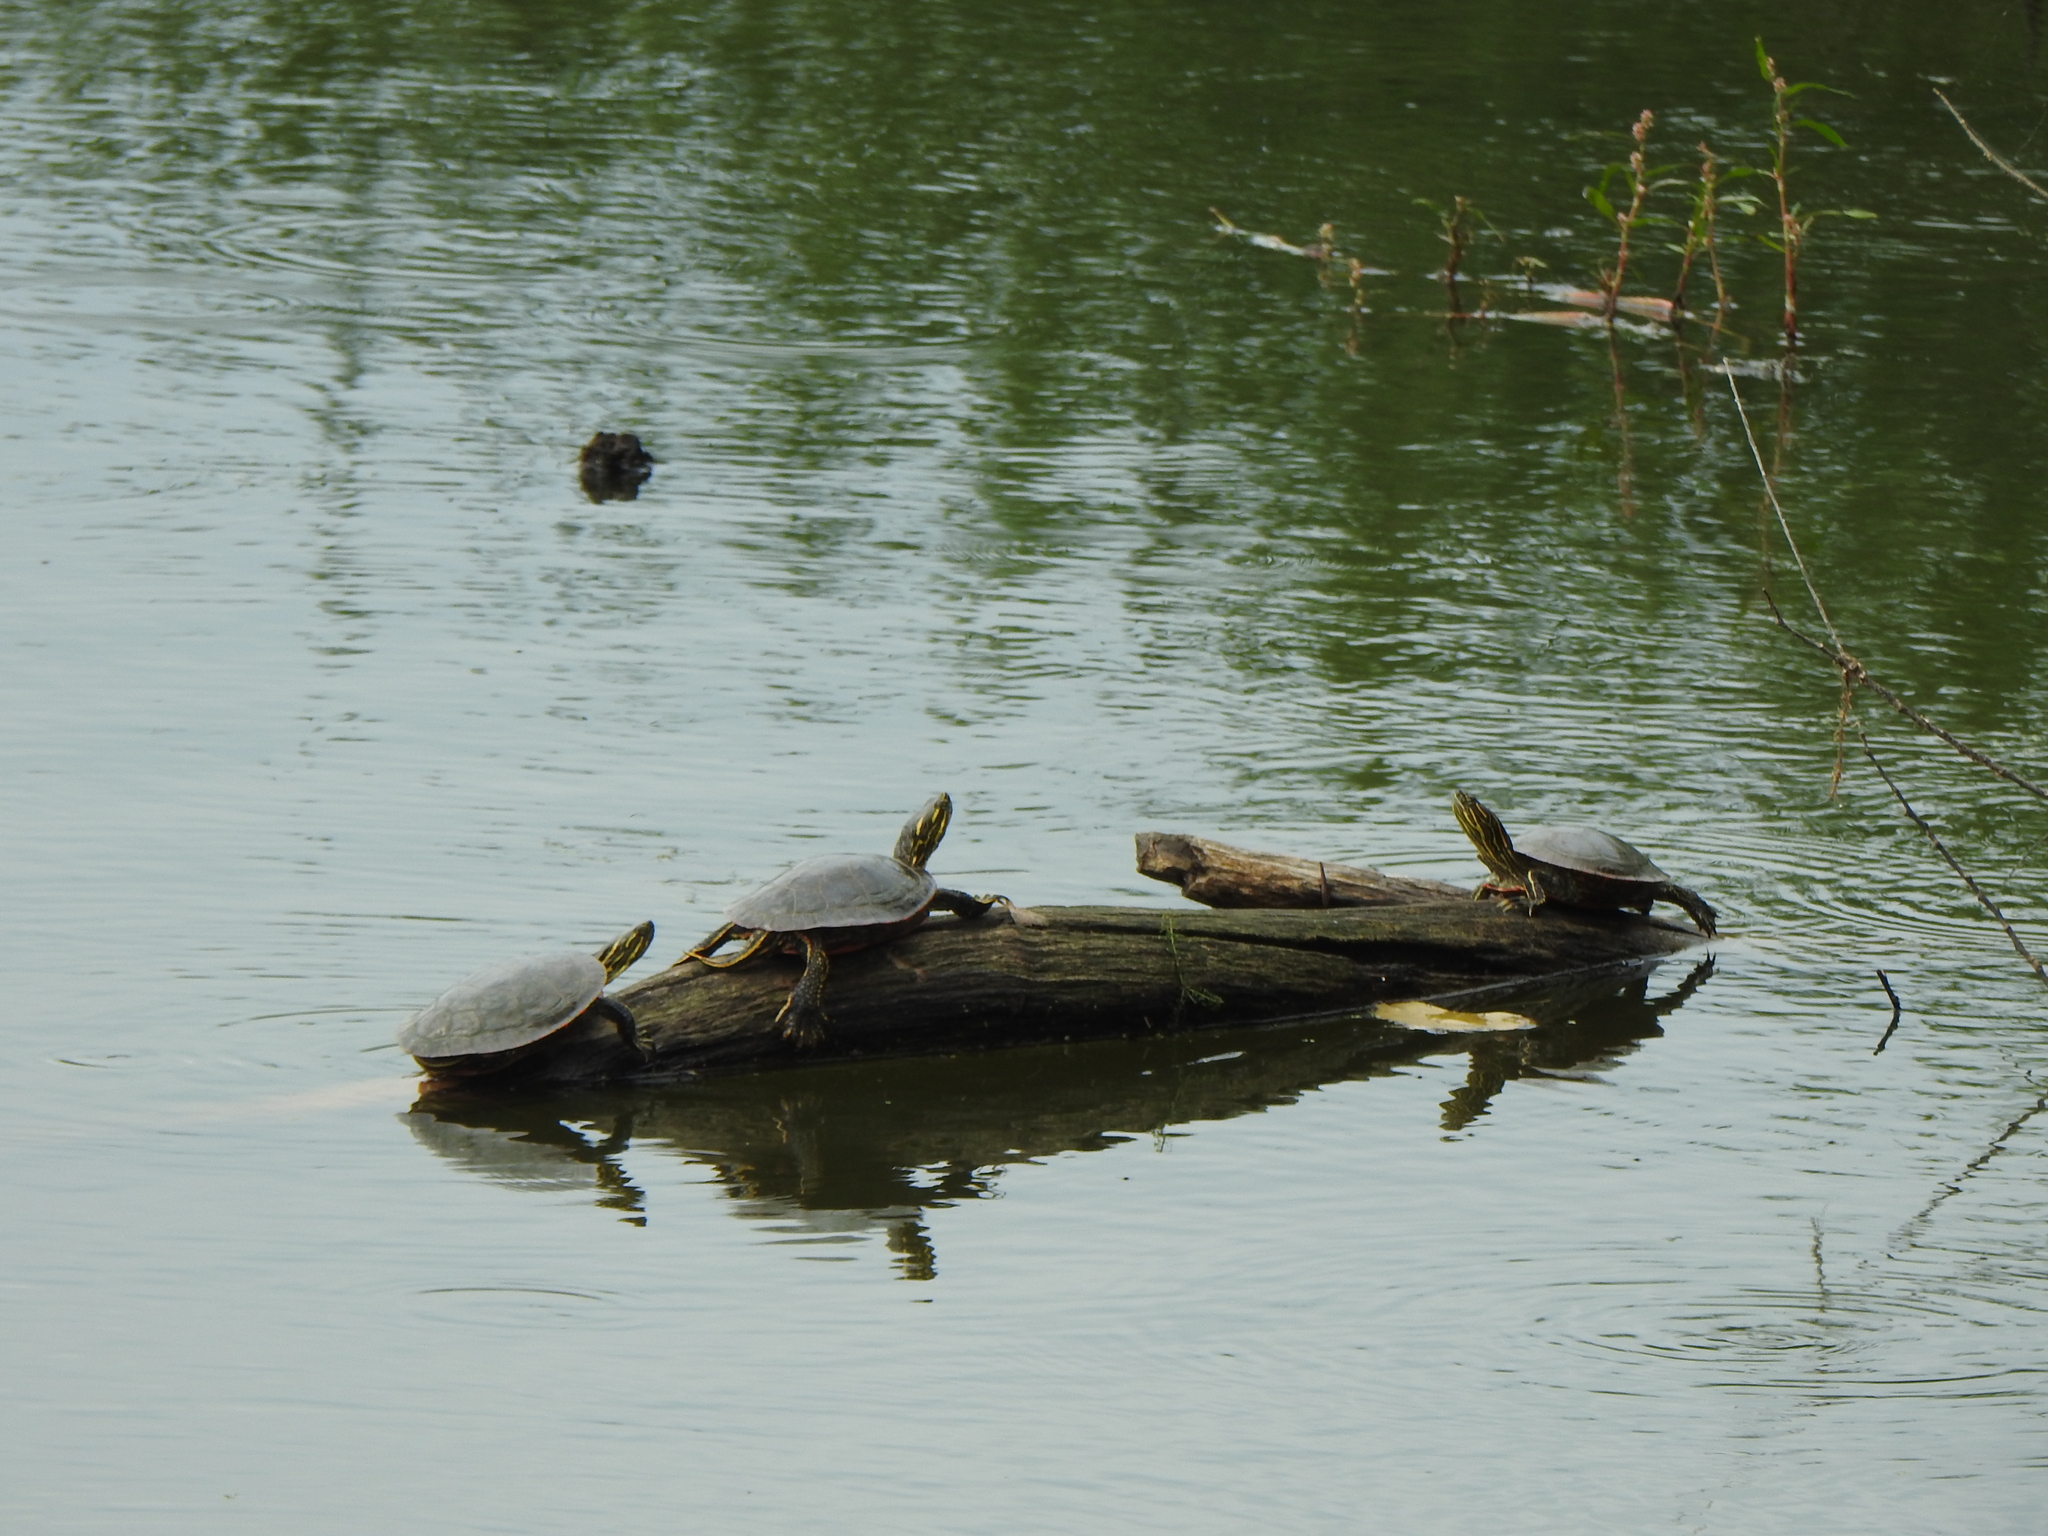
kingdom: Animalia
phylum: Chordata
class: Testudines
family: Emydidae
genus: Chrysemys
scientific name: Chrysemys picta
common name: Painted turtle
